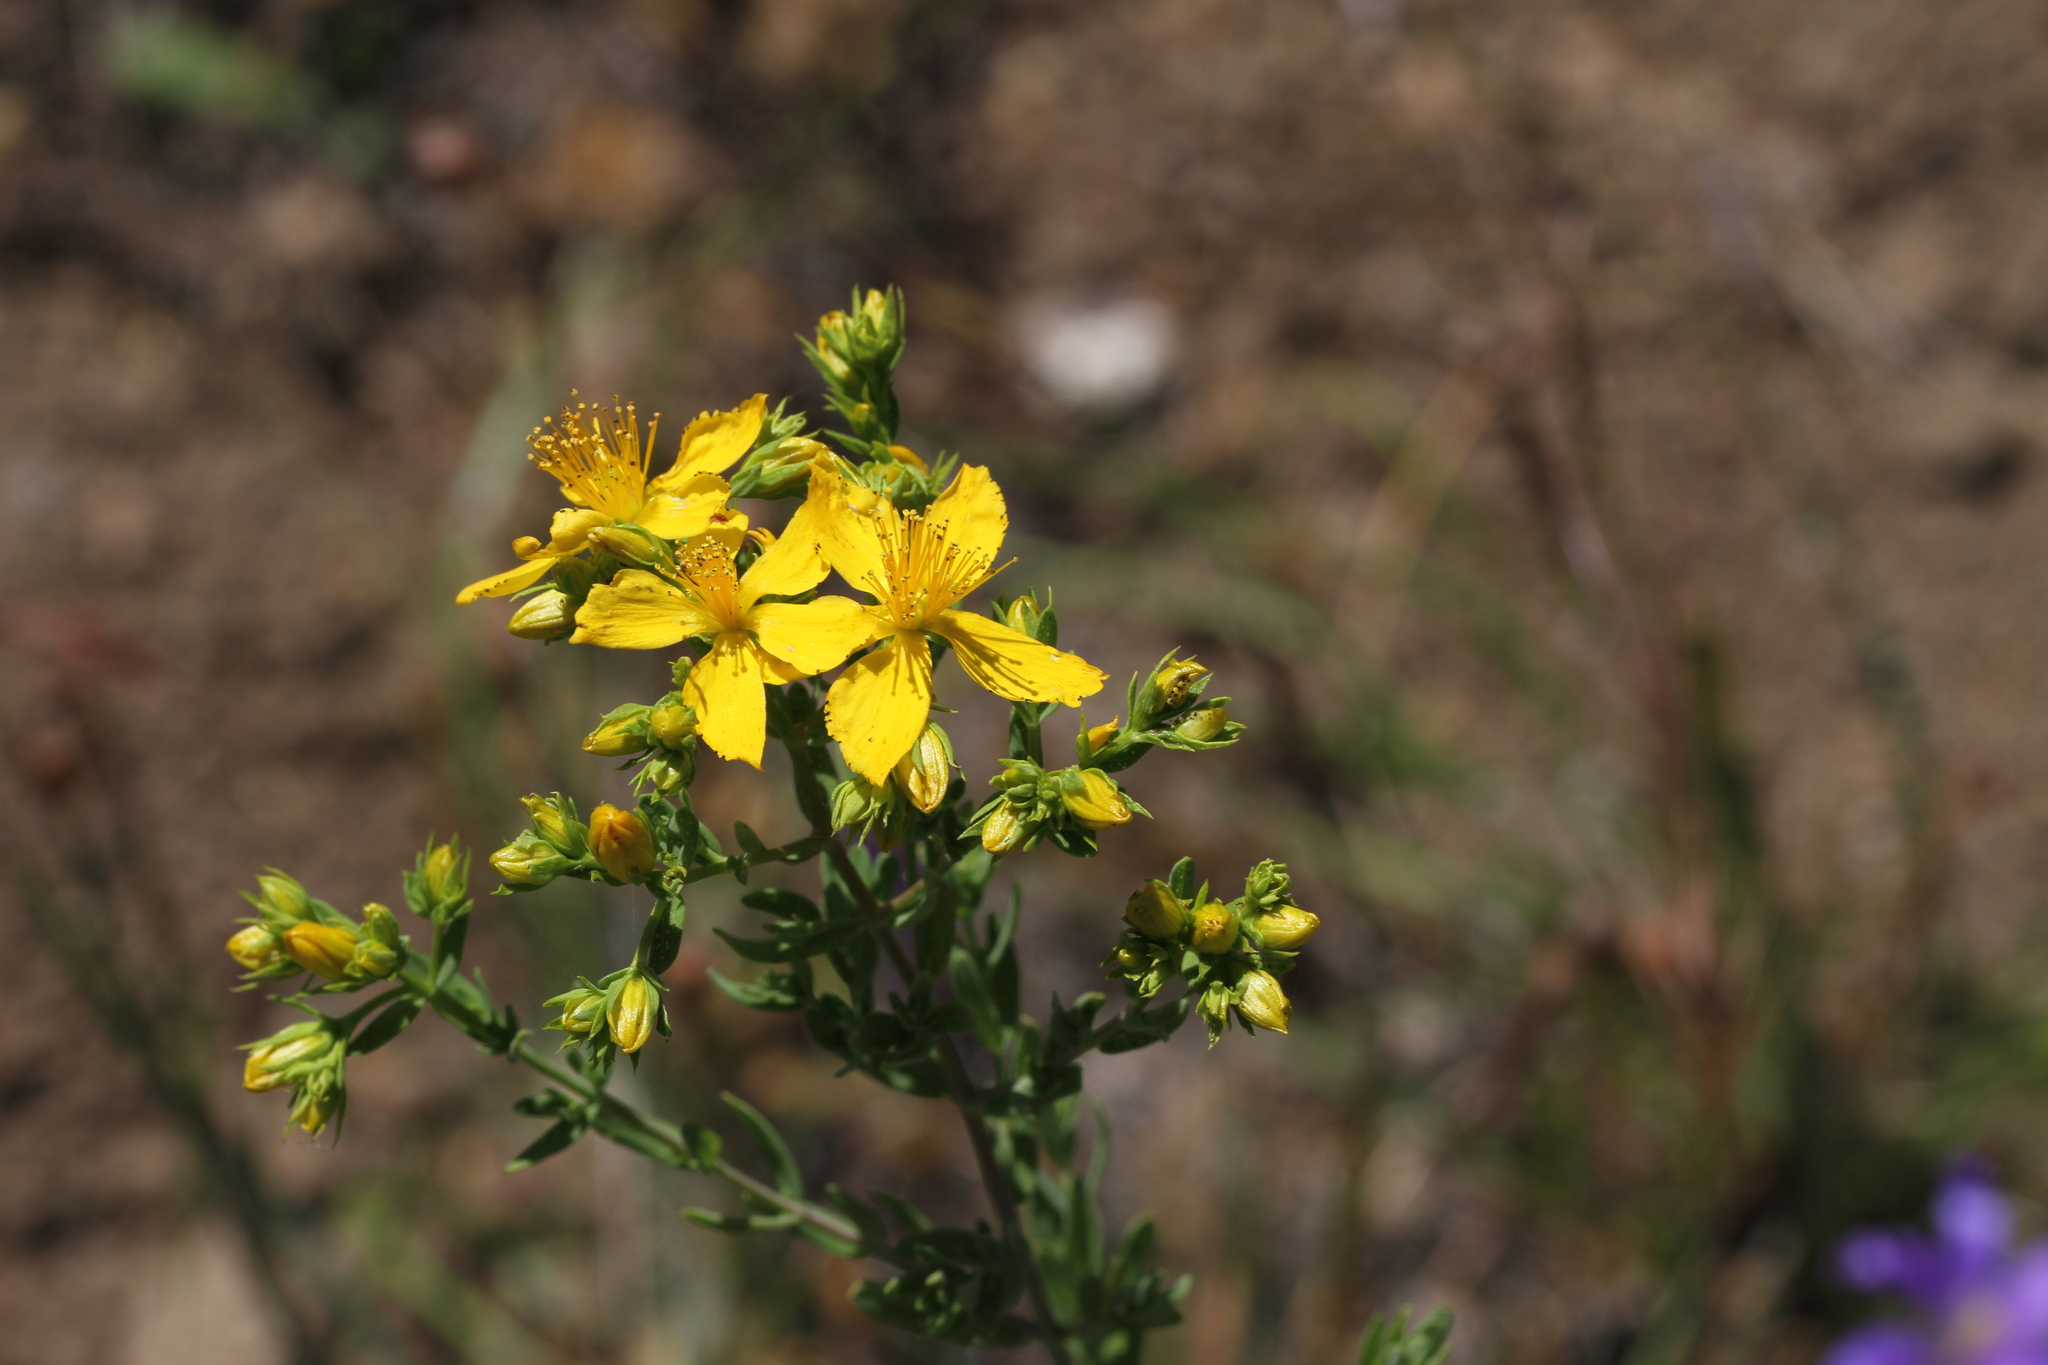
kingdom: Plantae
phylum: Tracheophyta
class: Magnoliopsida
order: Malpighiales
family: Hypericaceae
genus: Hypericum
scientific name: Hypericum perforatum
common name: Common st. johnswort
